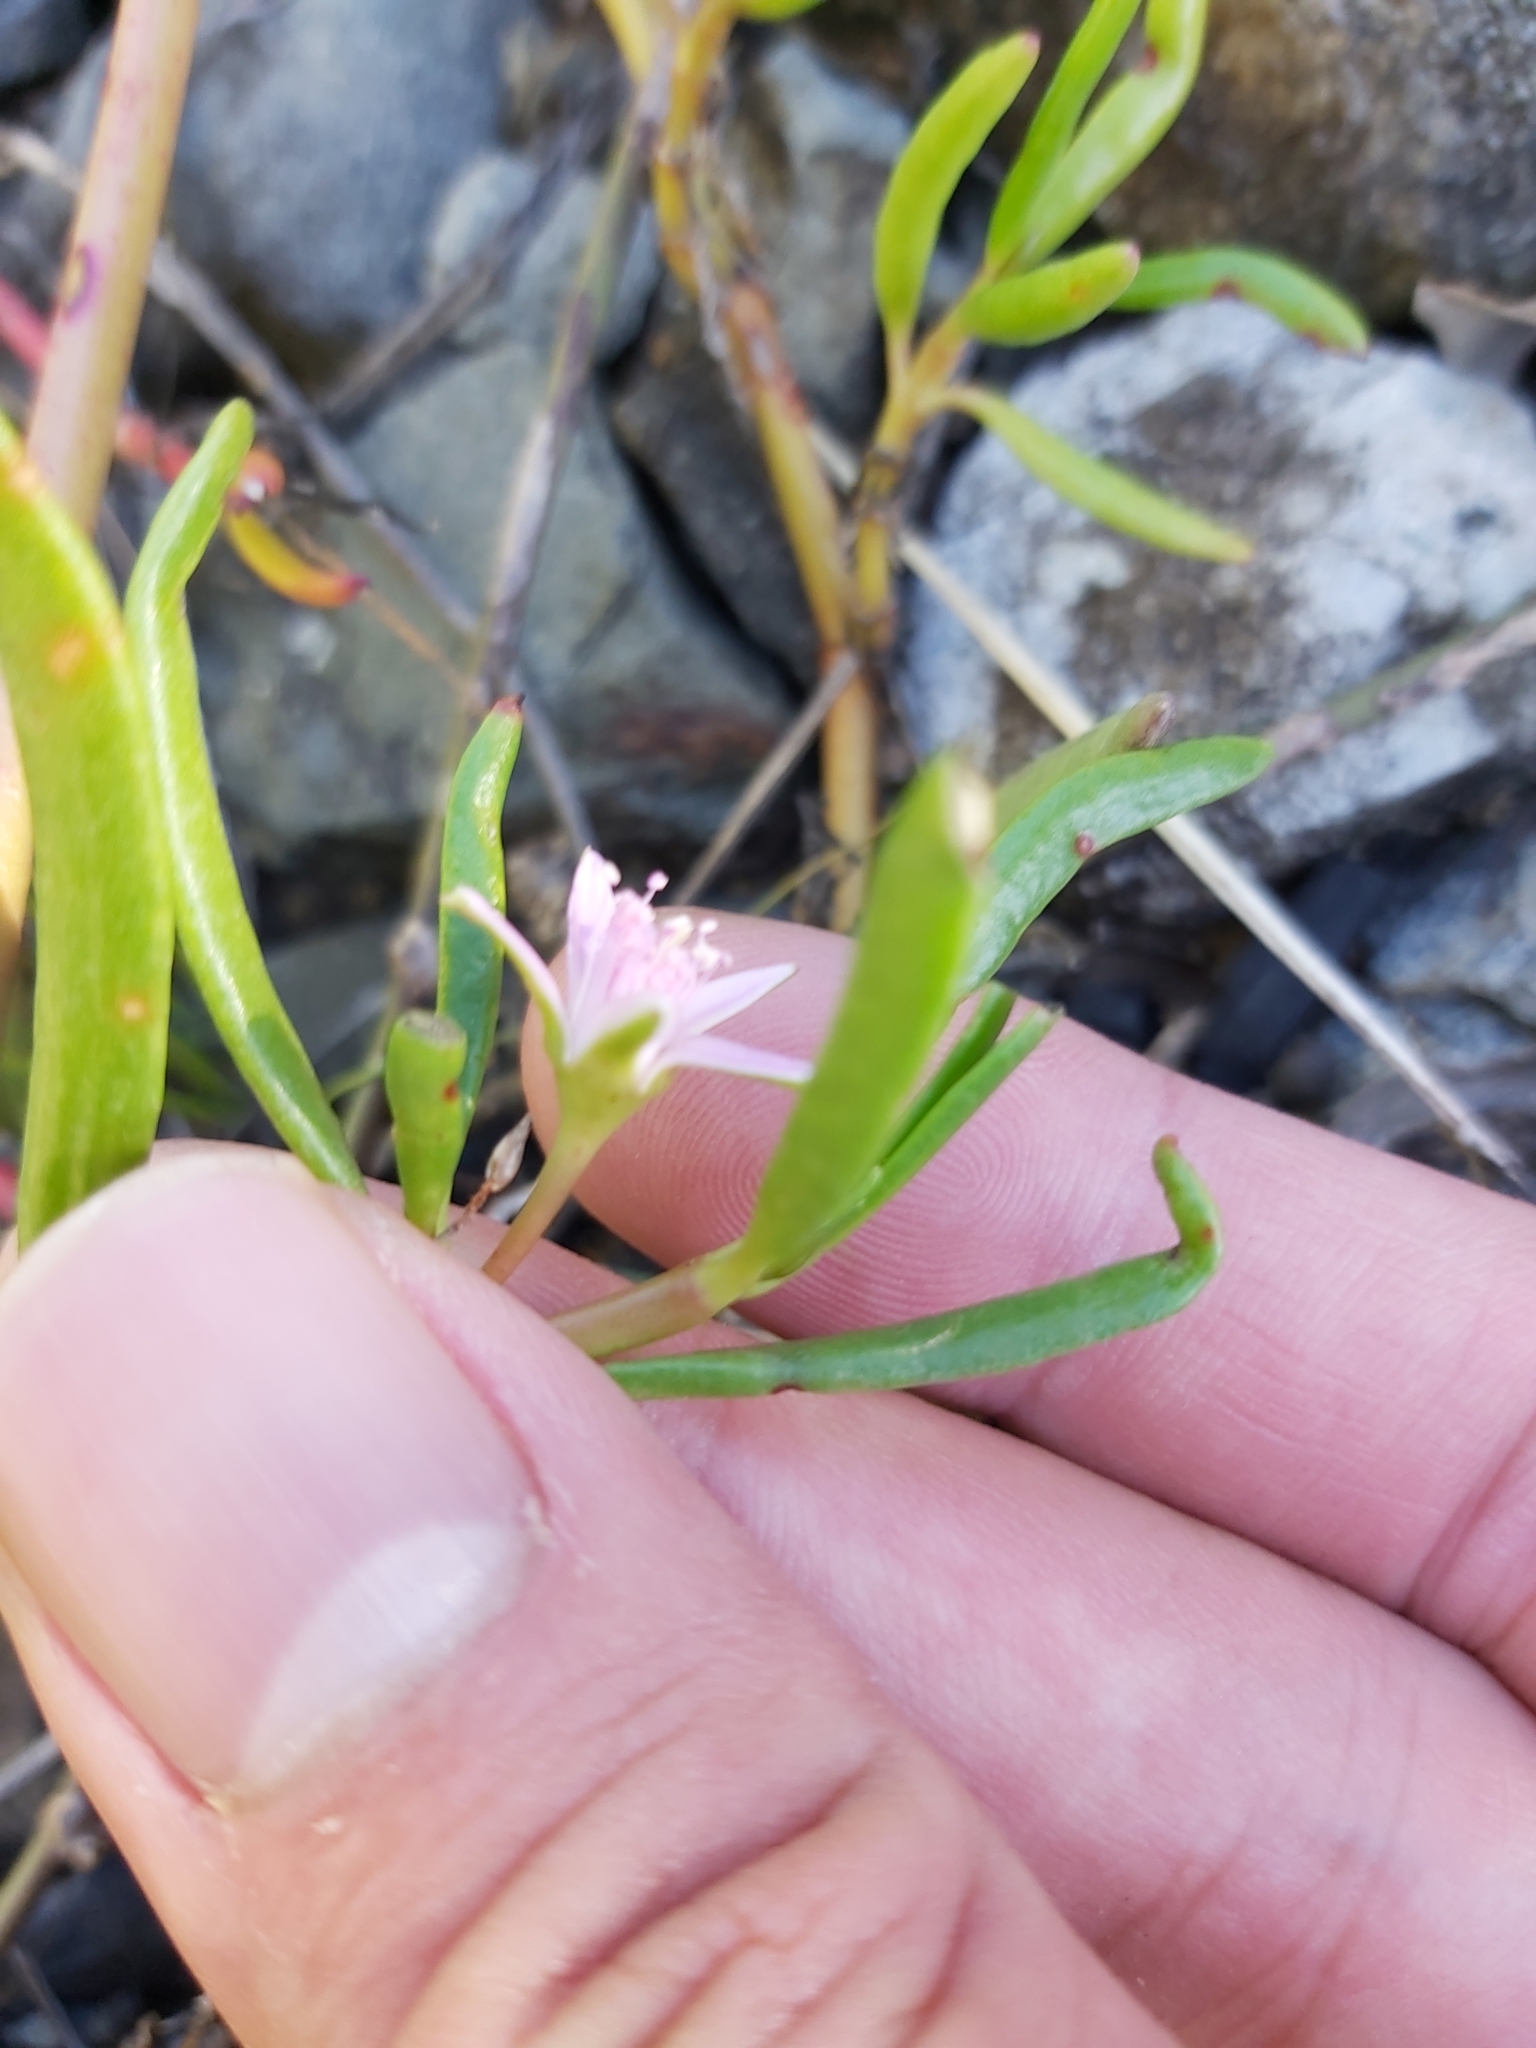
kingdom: Plantae
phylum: Tracheophyta
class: Magnoliopsida
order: Caryophyllales
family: Aizoaceae
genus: Sesuvium
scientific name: Sesuvium portulacastrum
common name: Sea-purslane
